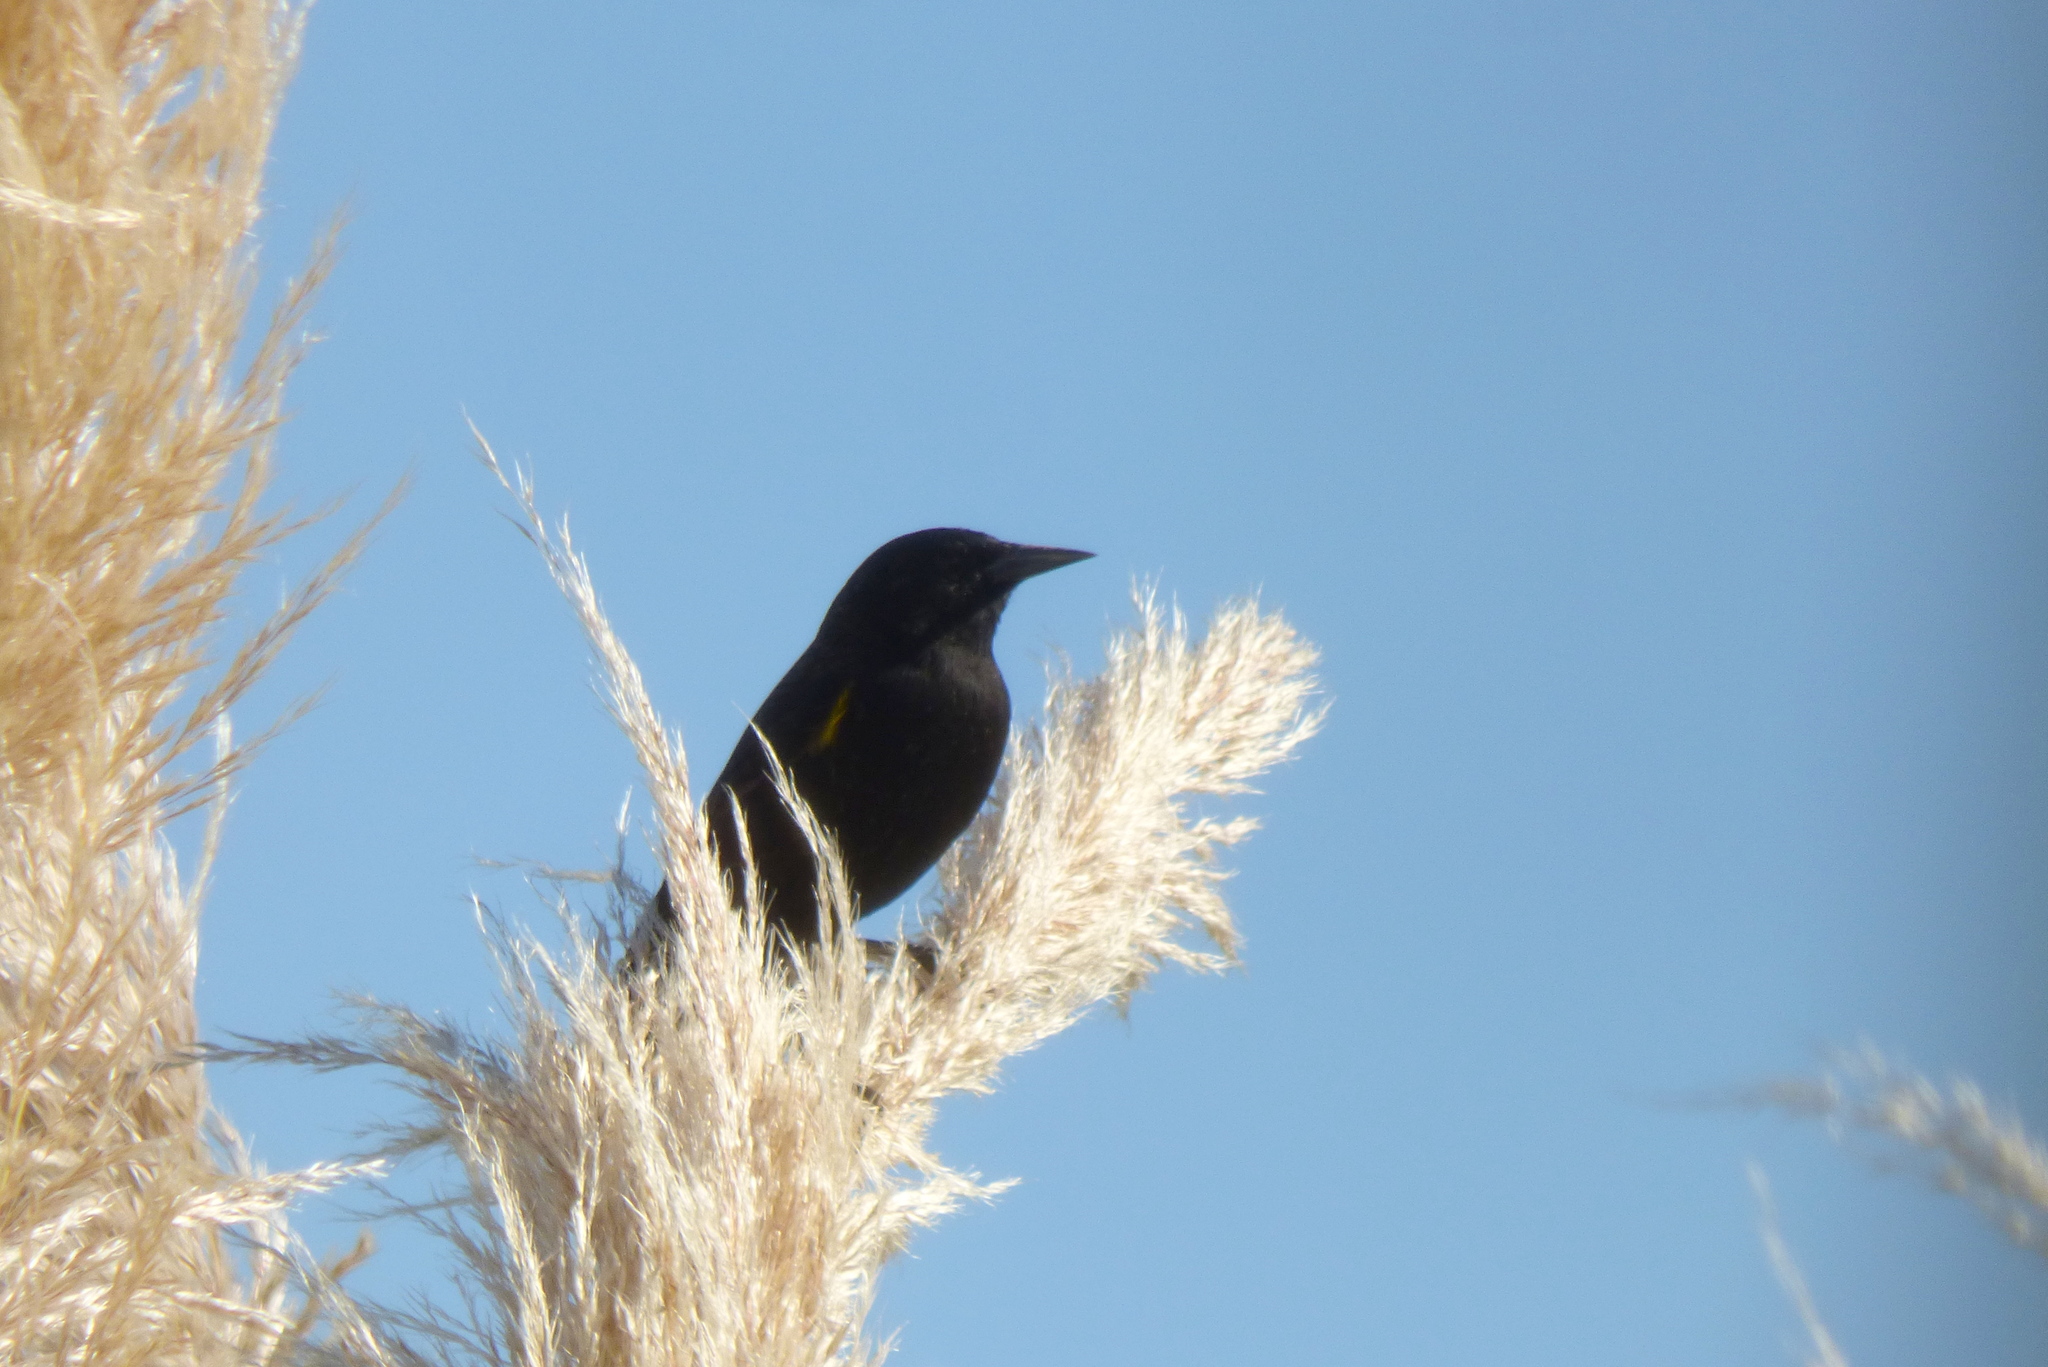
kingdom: Animalia
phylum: Chordata
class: Aves
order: Passeriformes
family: Icteridae
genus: Agelasticus
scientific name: Agelasticus thilius
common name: Yellow-winged blackbird
